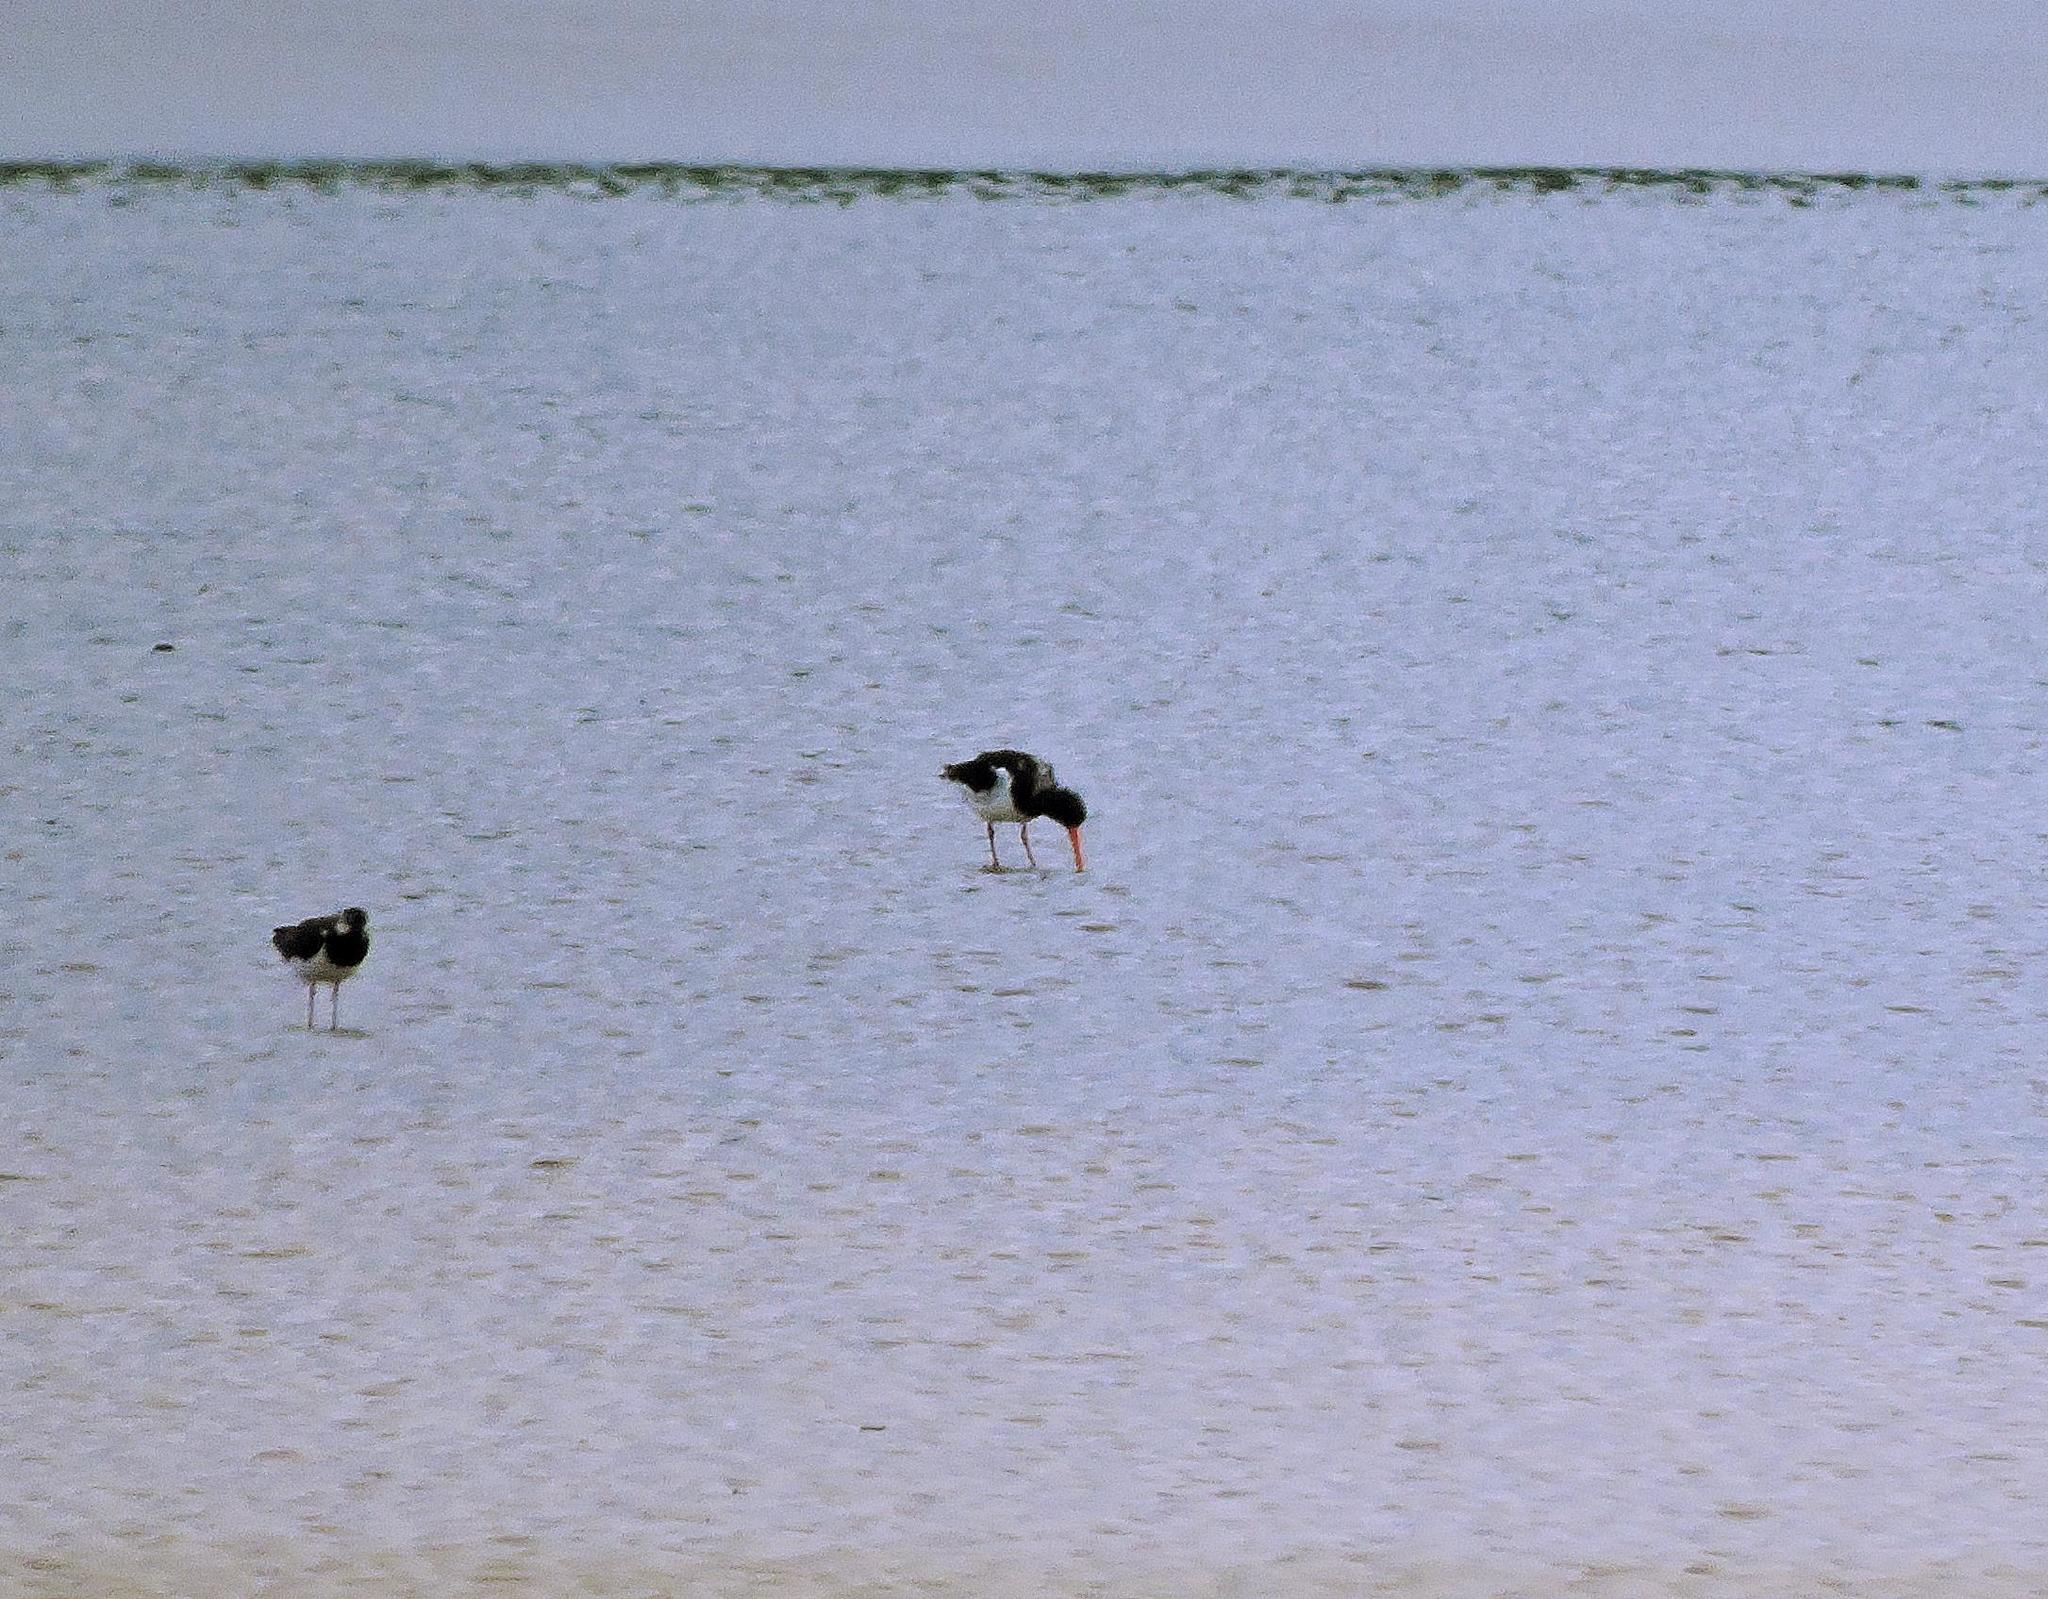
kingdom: Animalia
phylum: Chordata
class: Aves
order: Charadriiformes
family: Haematopodidae
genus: Haematopus
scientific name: Haematopus ostralegus
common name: Eurasian oystercatcher
